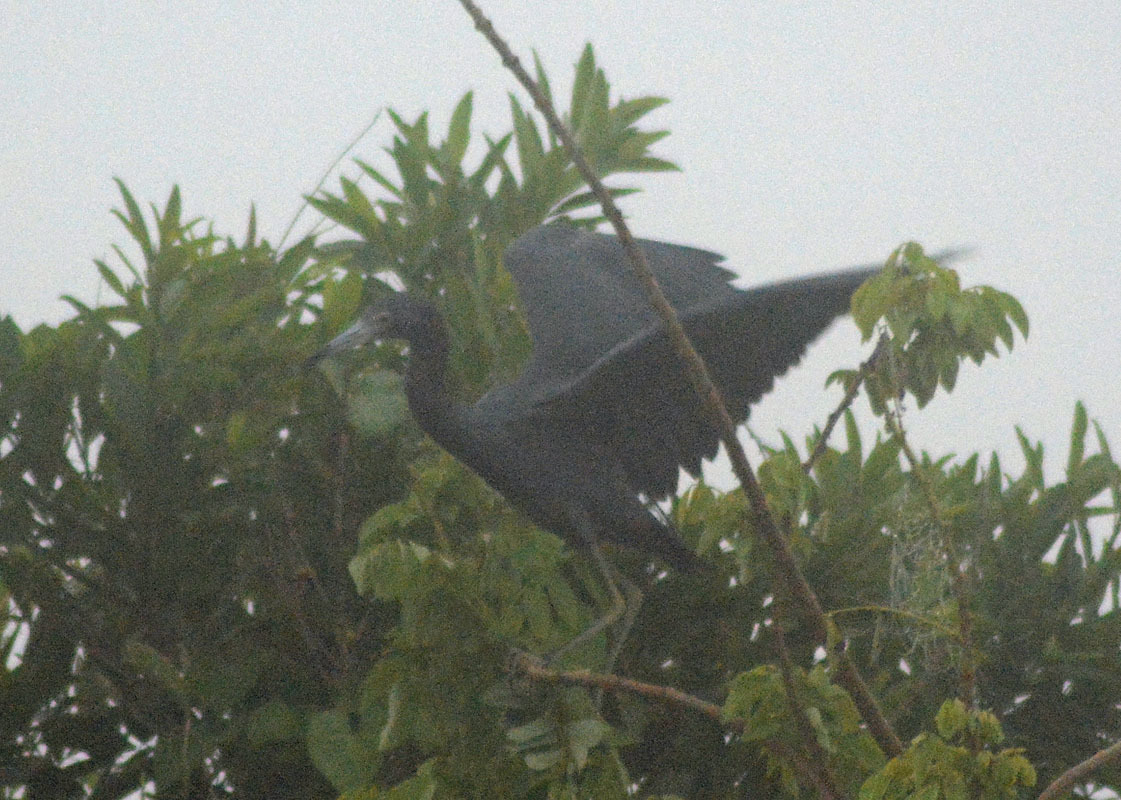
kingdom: Animalia
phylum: Chordata
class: Aves
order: Pelecaniformes
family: Ardeidae
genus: Egretta
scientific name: Egretta caerulea
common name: Little blue heron
